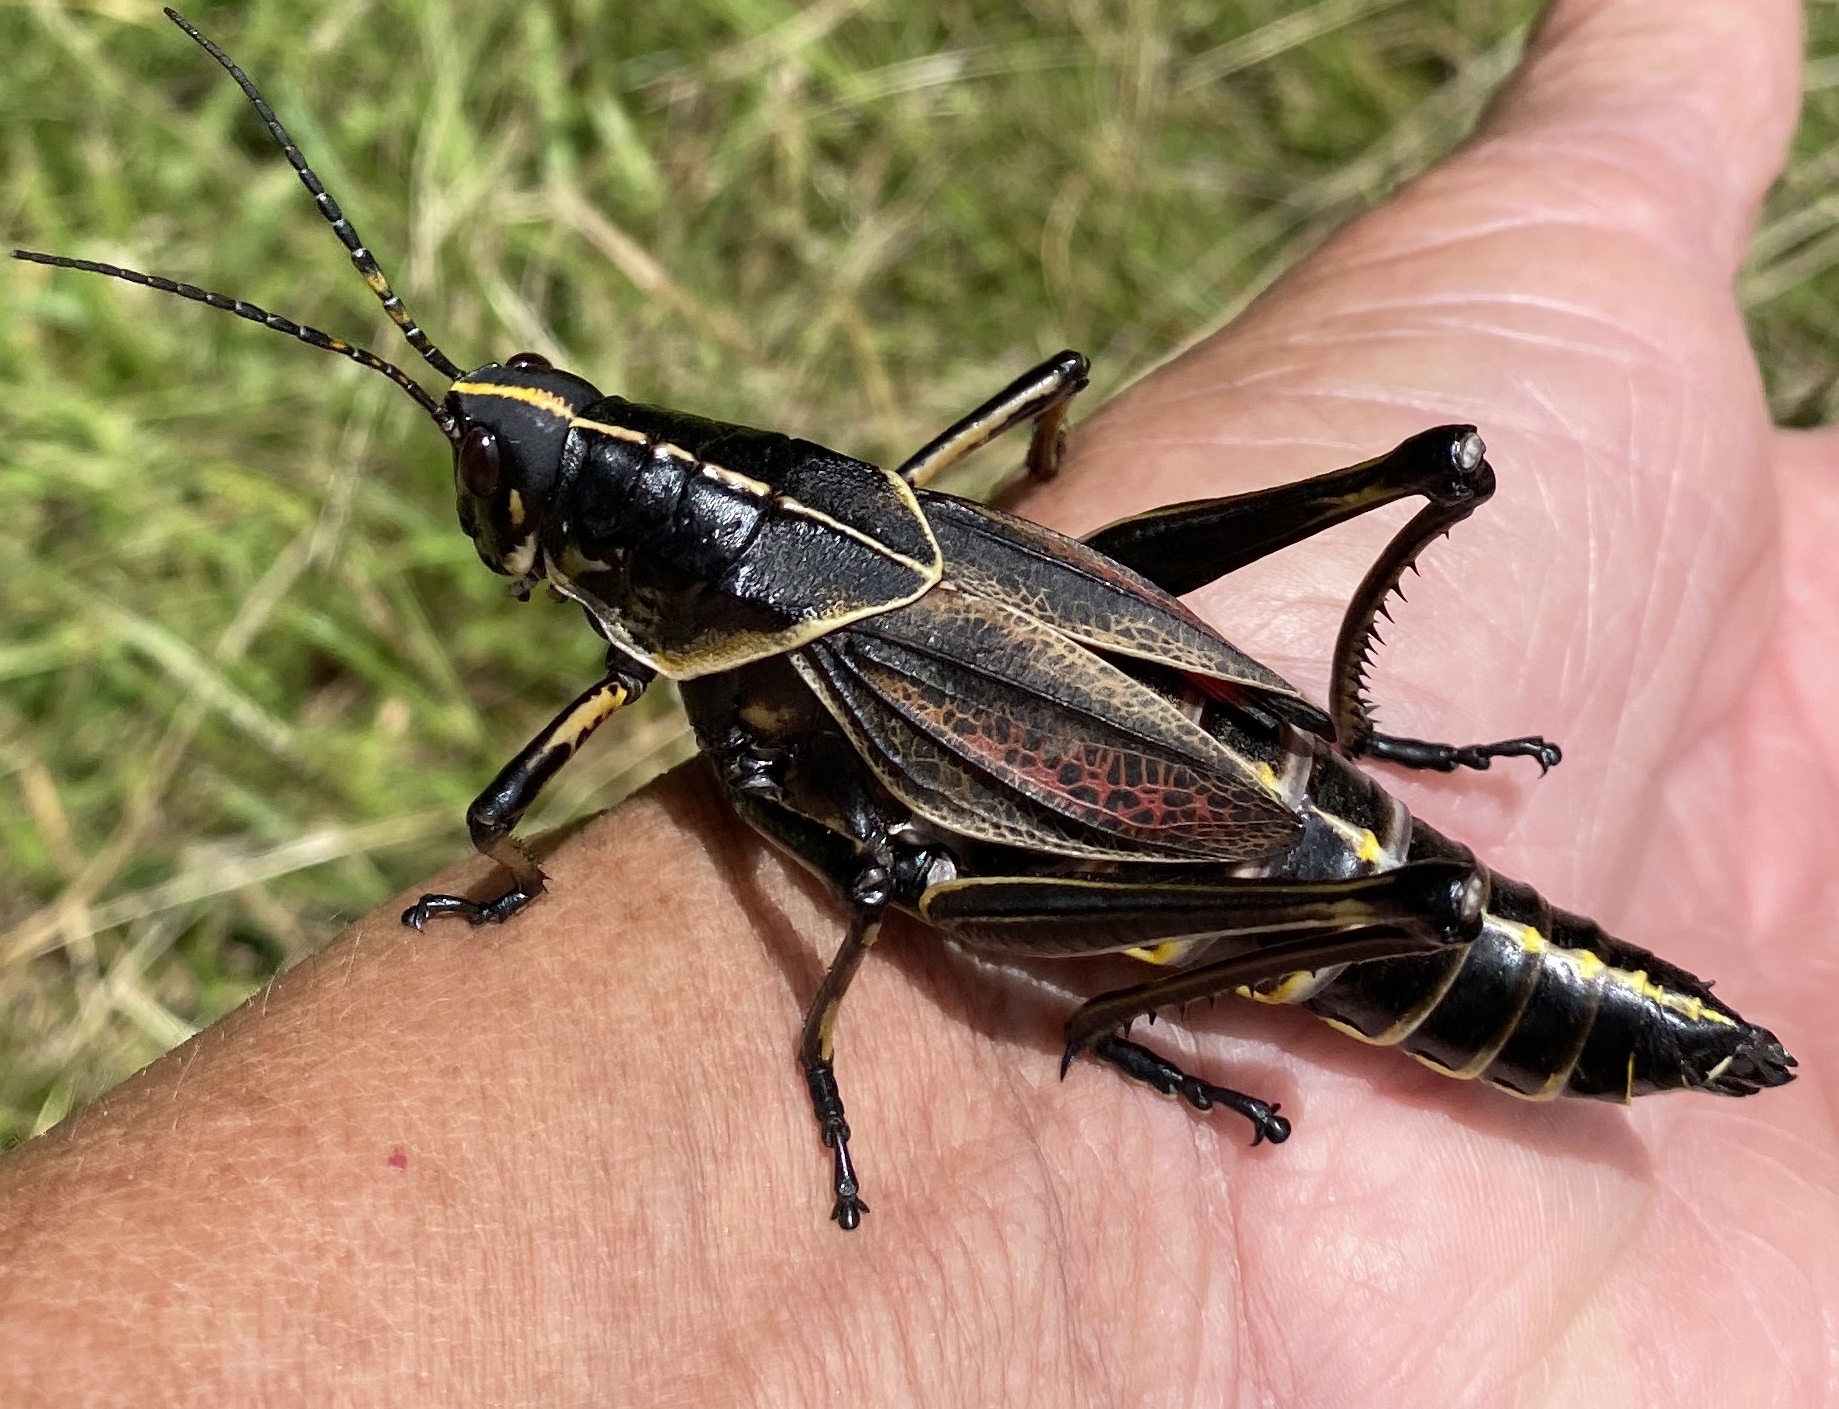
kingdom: Animalia
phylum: Arthropoda
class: Insecta
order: Orthoptera
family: Romaleidae
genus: Romalea
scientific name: Romalea microptera
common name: Eastern lubber grasshopper
